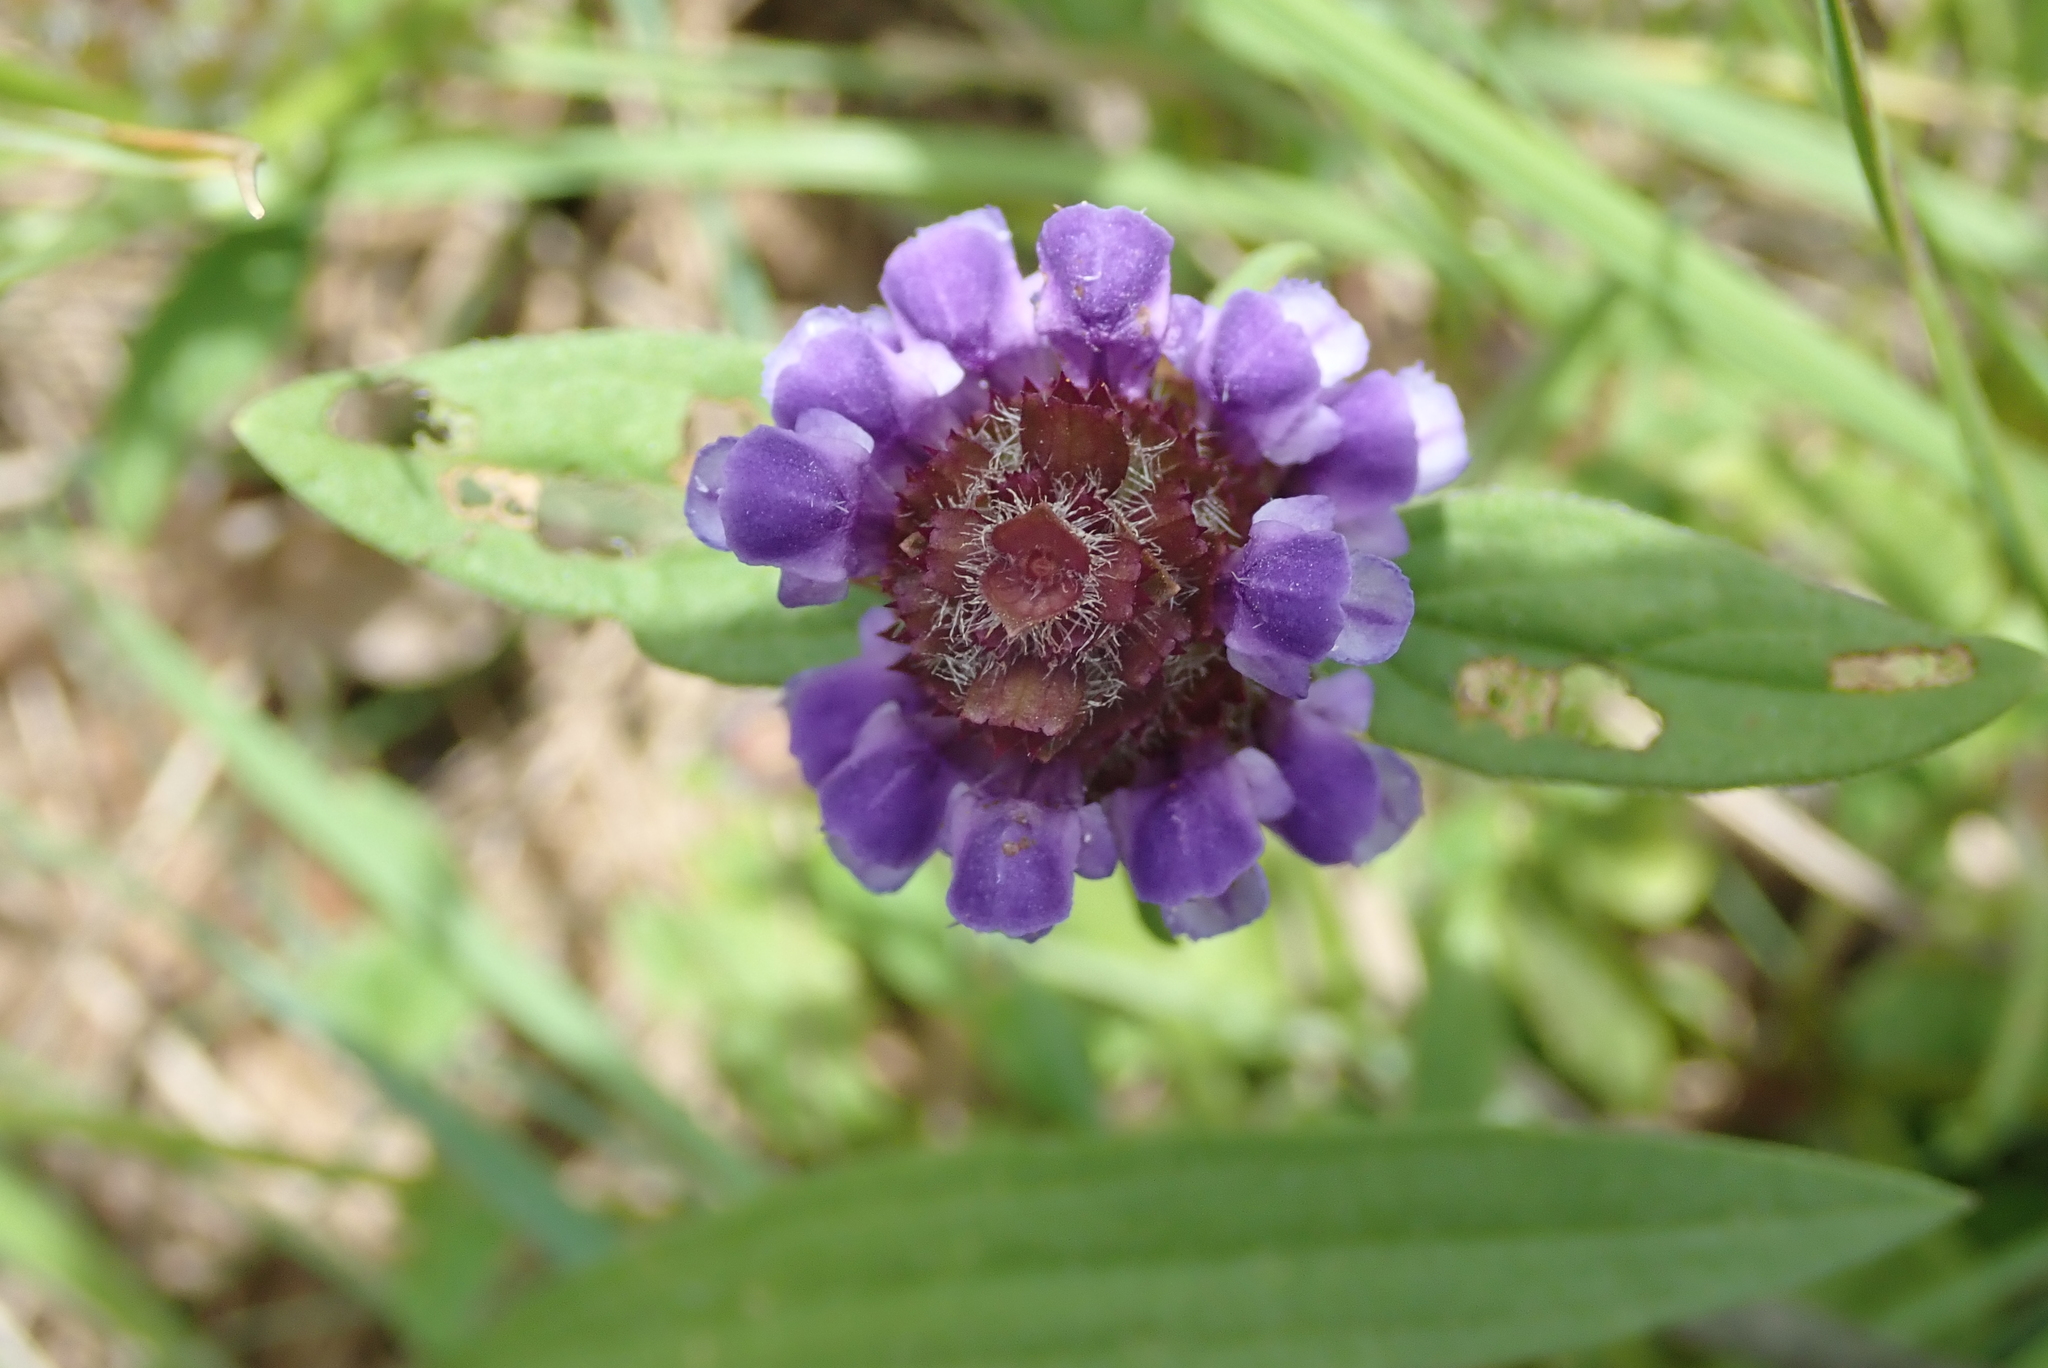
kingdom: Plantae
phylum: Tracheophyta
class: Magnoliopsida
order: Lamiales
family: Lamiaceae
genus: Prunella
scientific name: Prunella vulgaris
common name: Heal-all
